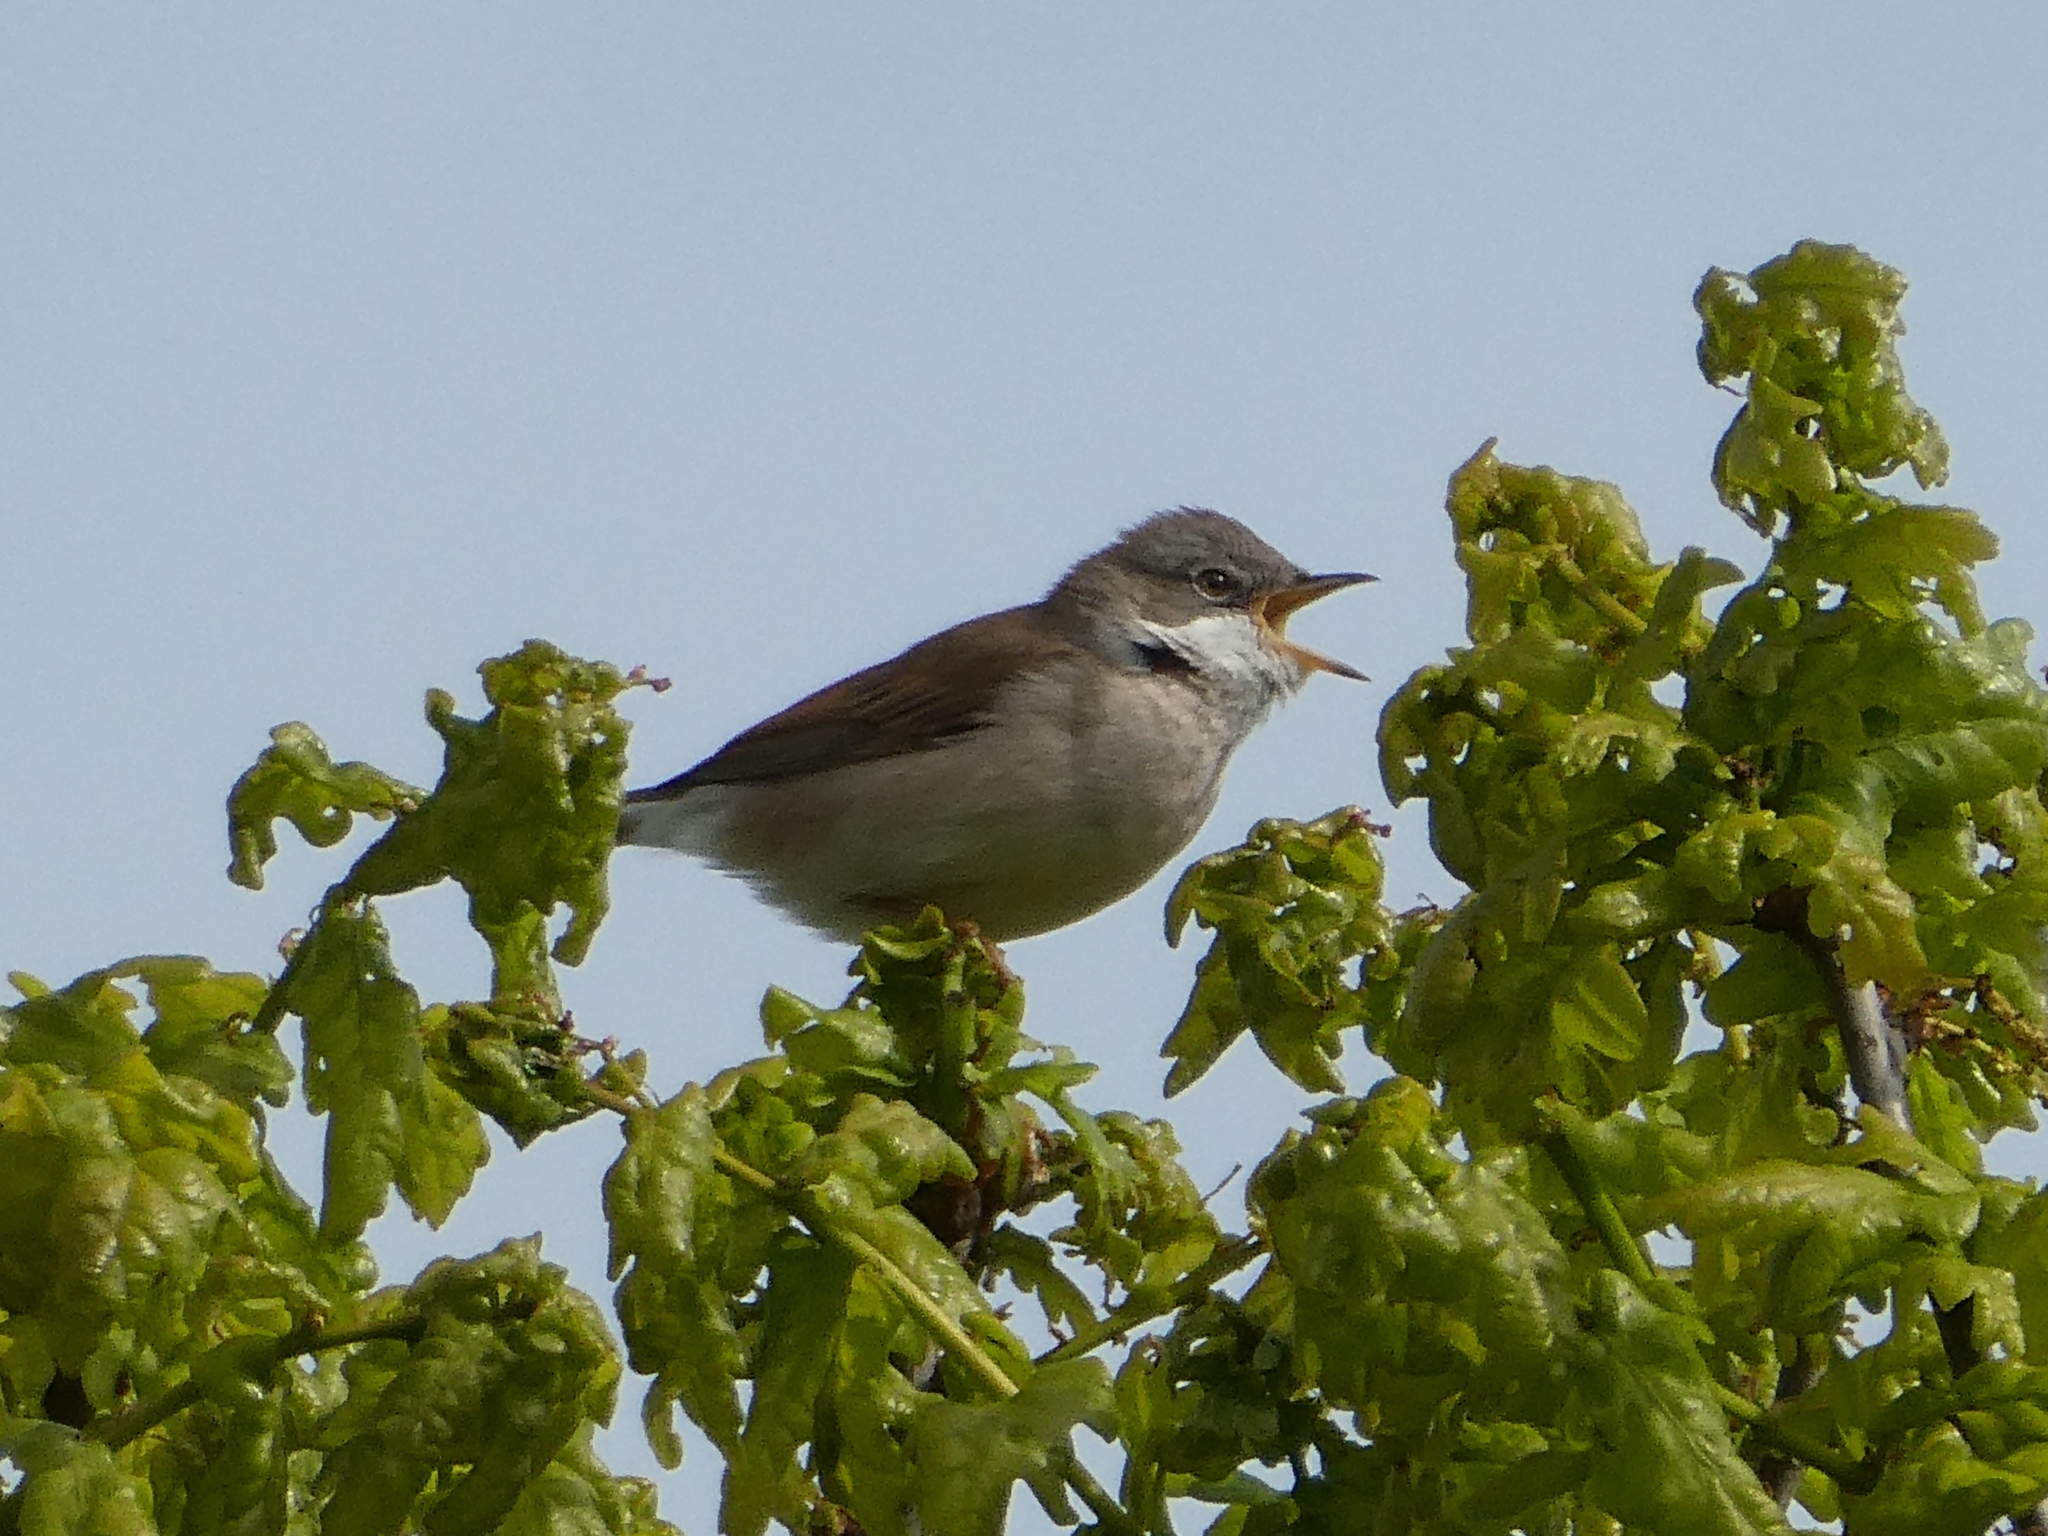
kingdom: Animalia
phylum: Chordata
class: Aves
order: Passeriformes
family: Sylviidae
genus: Sylvia
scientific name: Sylvia communis
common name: Common whitethroat
